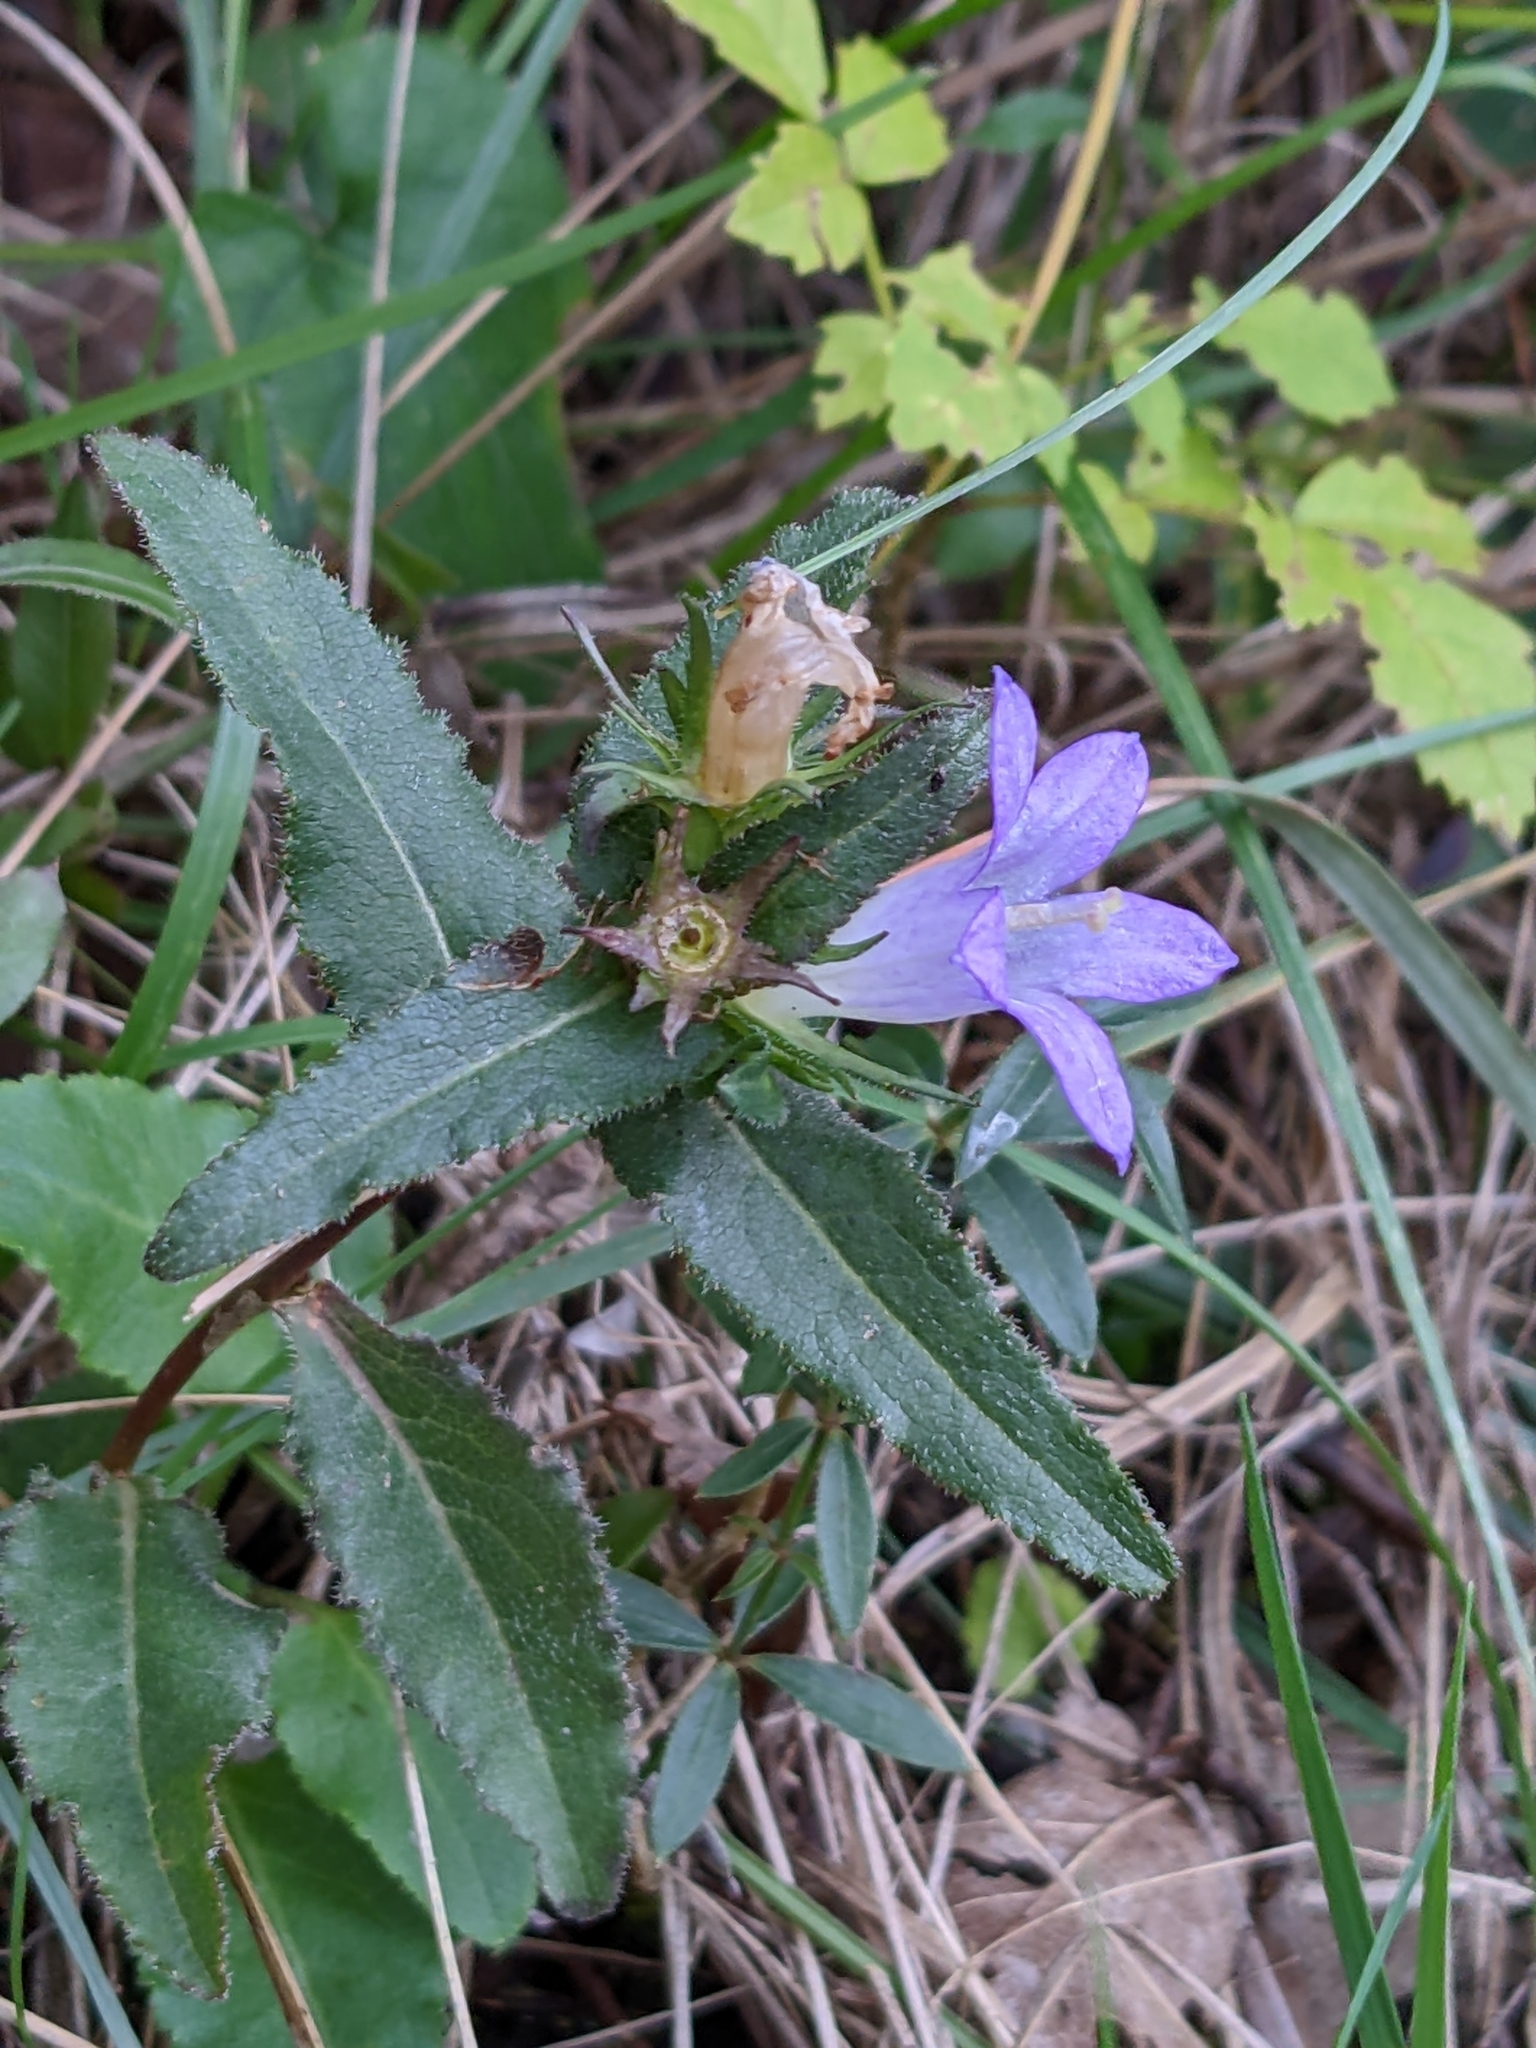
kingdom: Plantae
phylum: Tracheophyta
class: Magnoliopsida
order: Asterales
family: Campanulaceae
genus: Campanula
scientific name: Campanula glomerata
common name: Clustered bellflower
